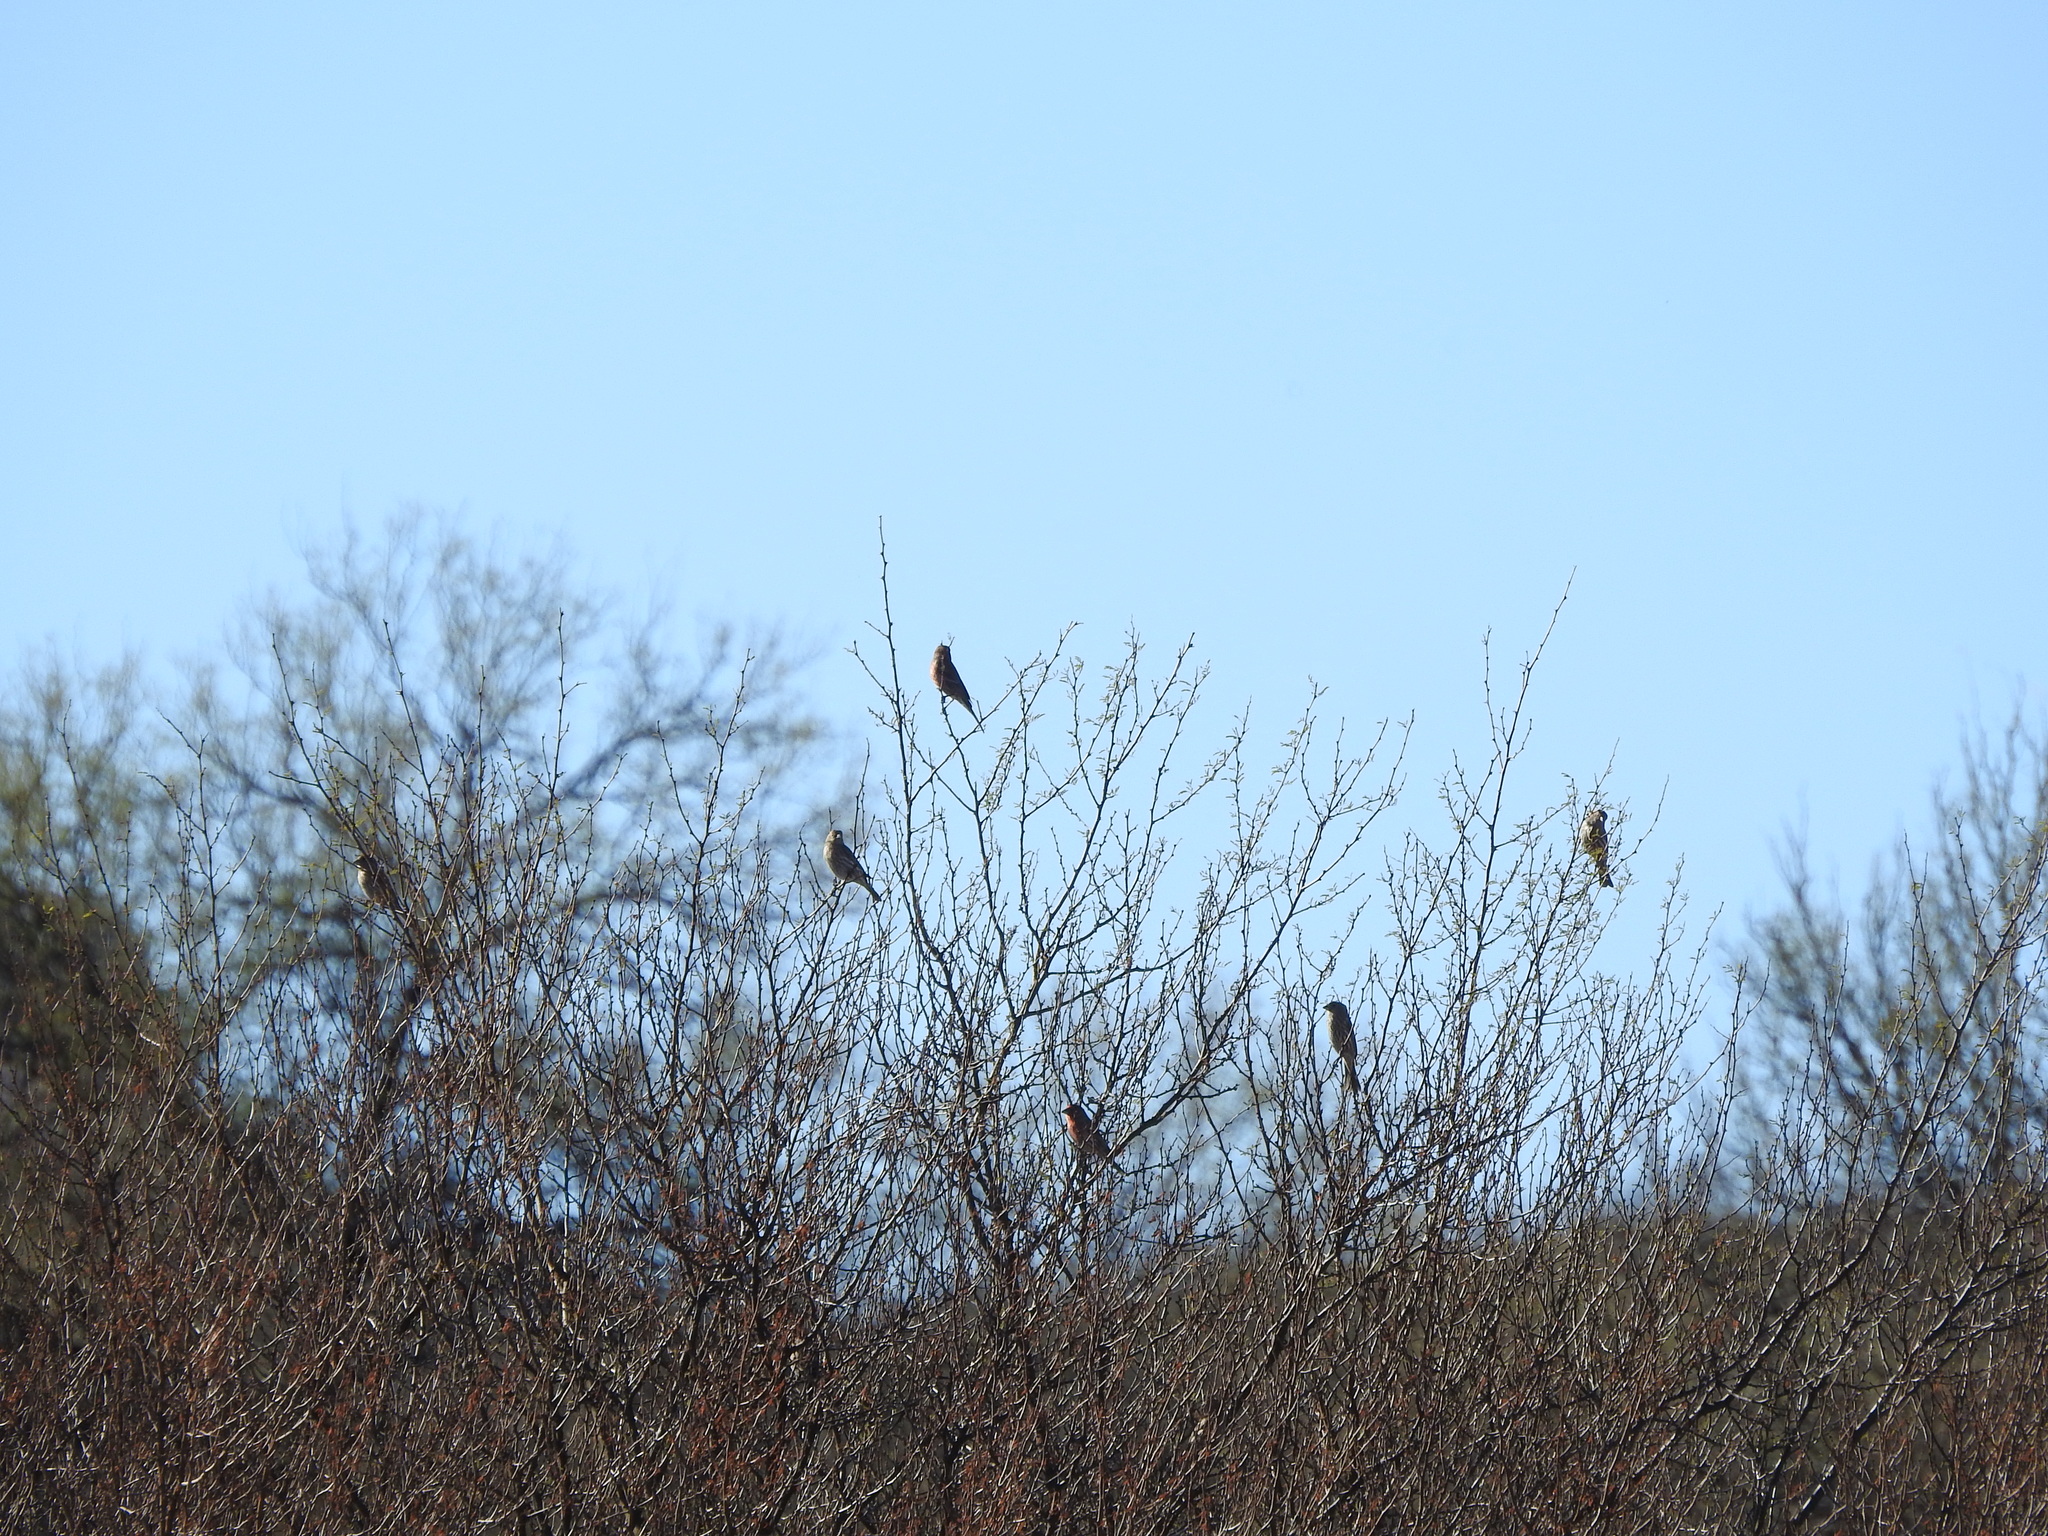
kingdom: Animalia
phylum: Chordata
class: Aves
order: Passeriformes
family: Fringillidae
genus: Haemorhous
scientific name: Haemorhous mexicanus
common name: House finch
